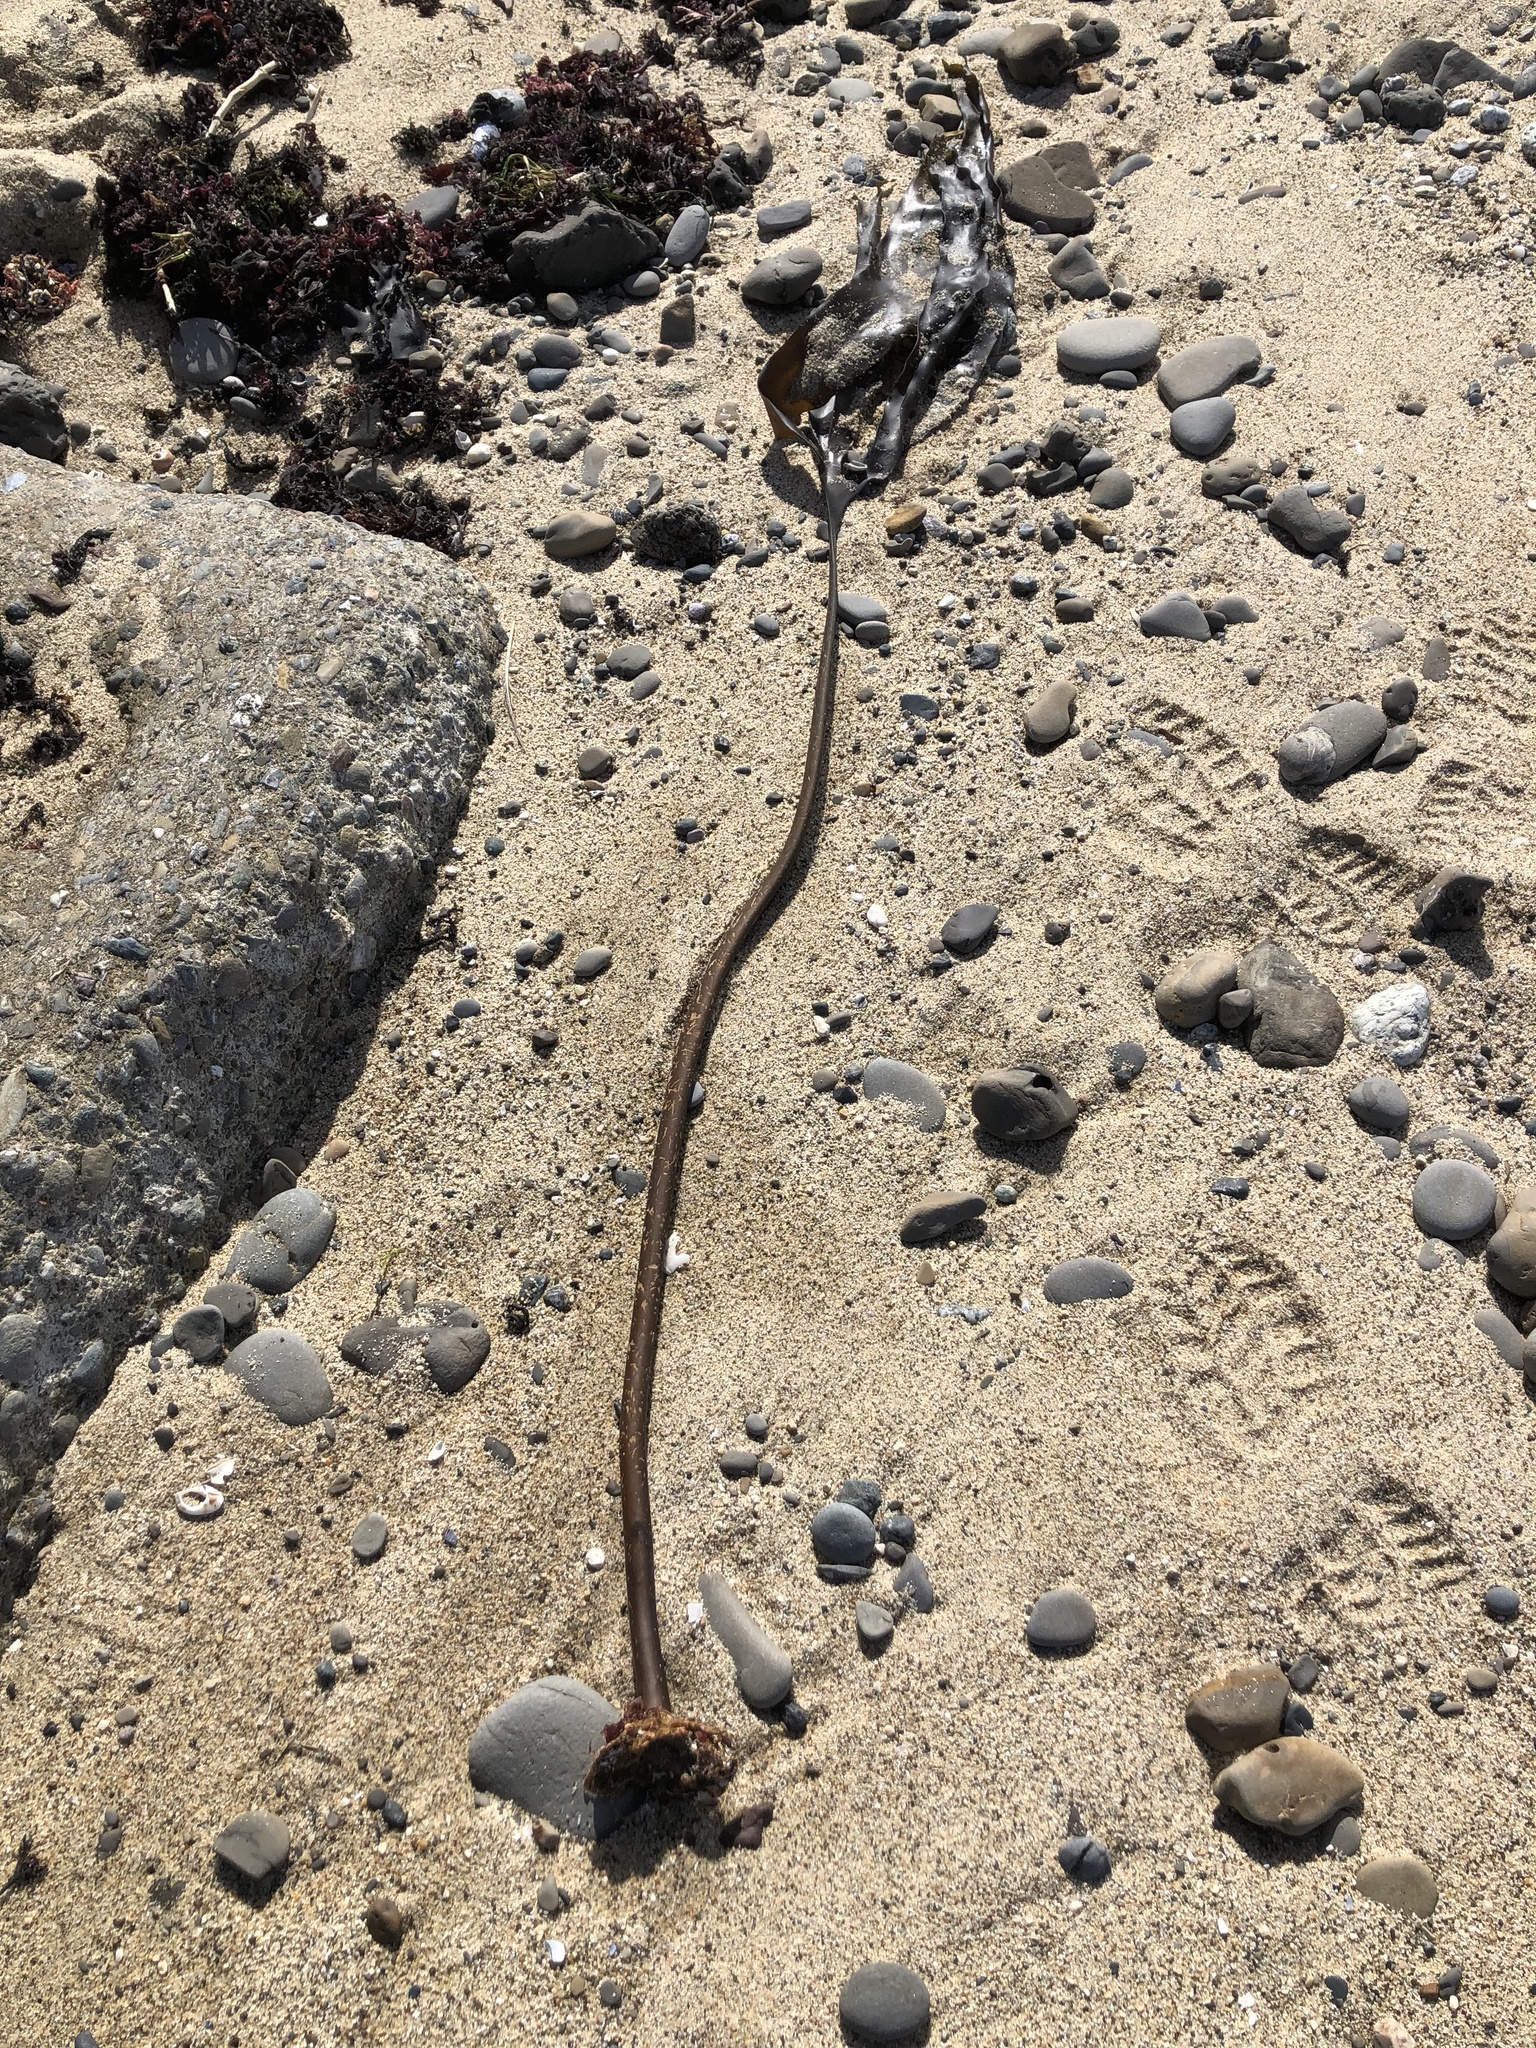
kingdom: Chromista
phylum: Ochrophyta
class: Phaeophyceae
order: Laminariales
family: Laminariaceae
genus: Laminaria
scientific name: Laminaria setchellii
